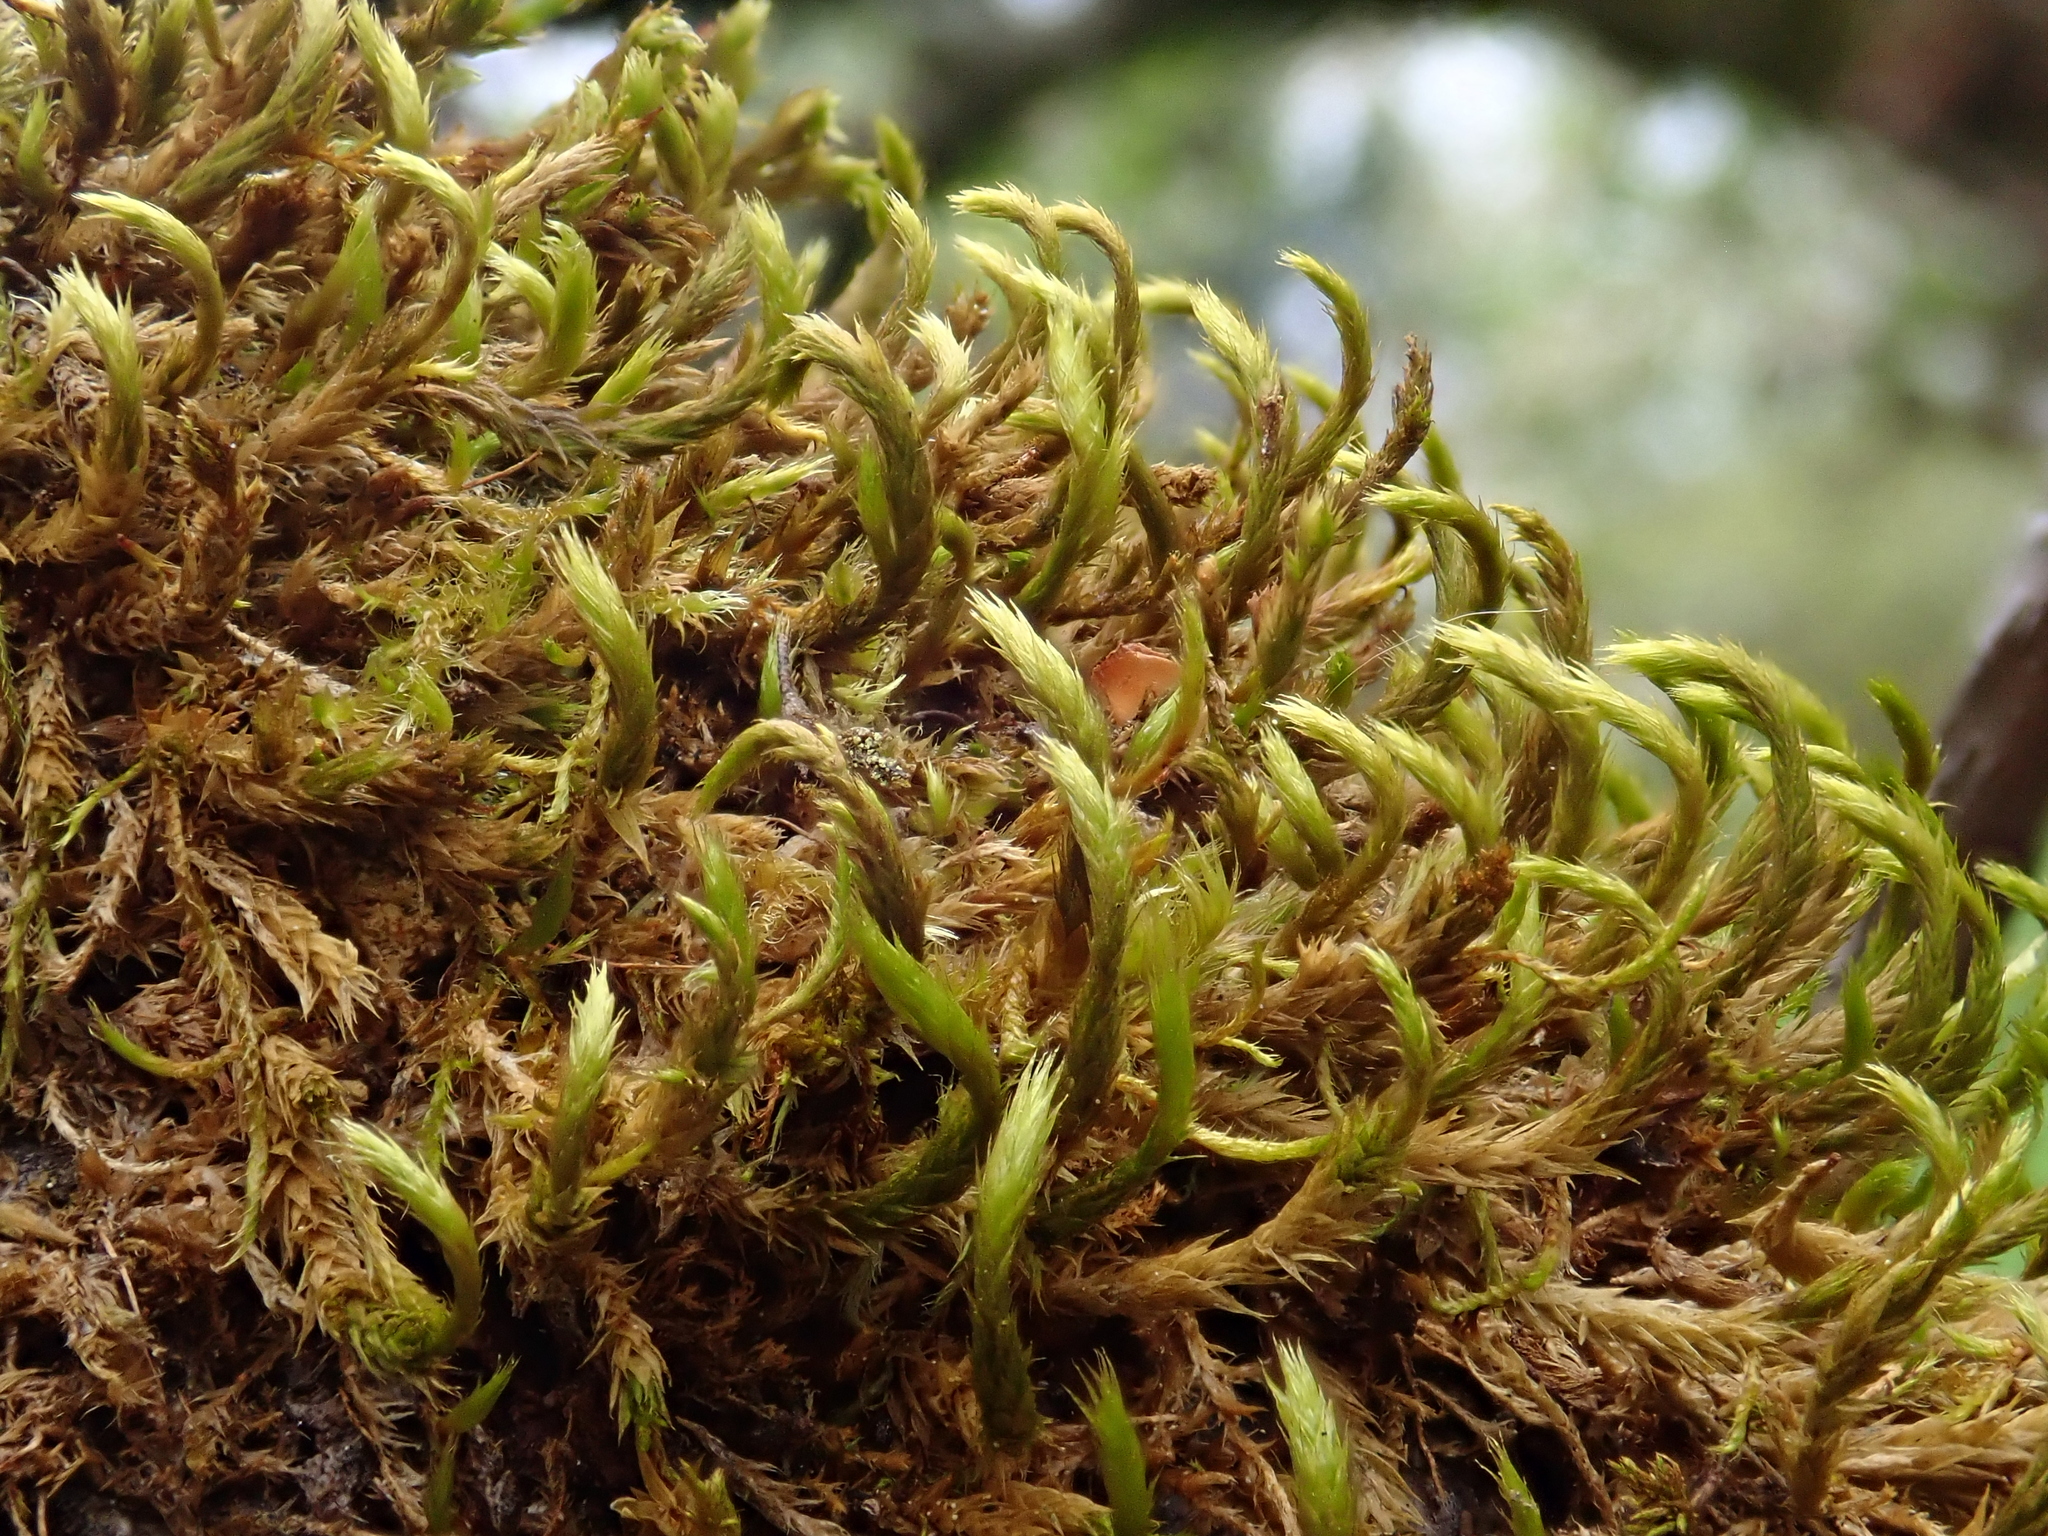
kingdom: Plantae
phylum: Bryophyta
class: Bryopsida
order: Hypnales
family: Leucodontaceae
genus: Leucodon
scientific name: Leucodon sciuroides
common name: Squirrel-tail moss
